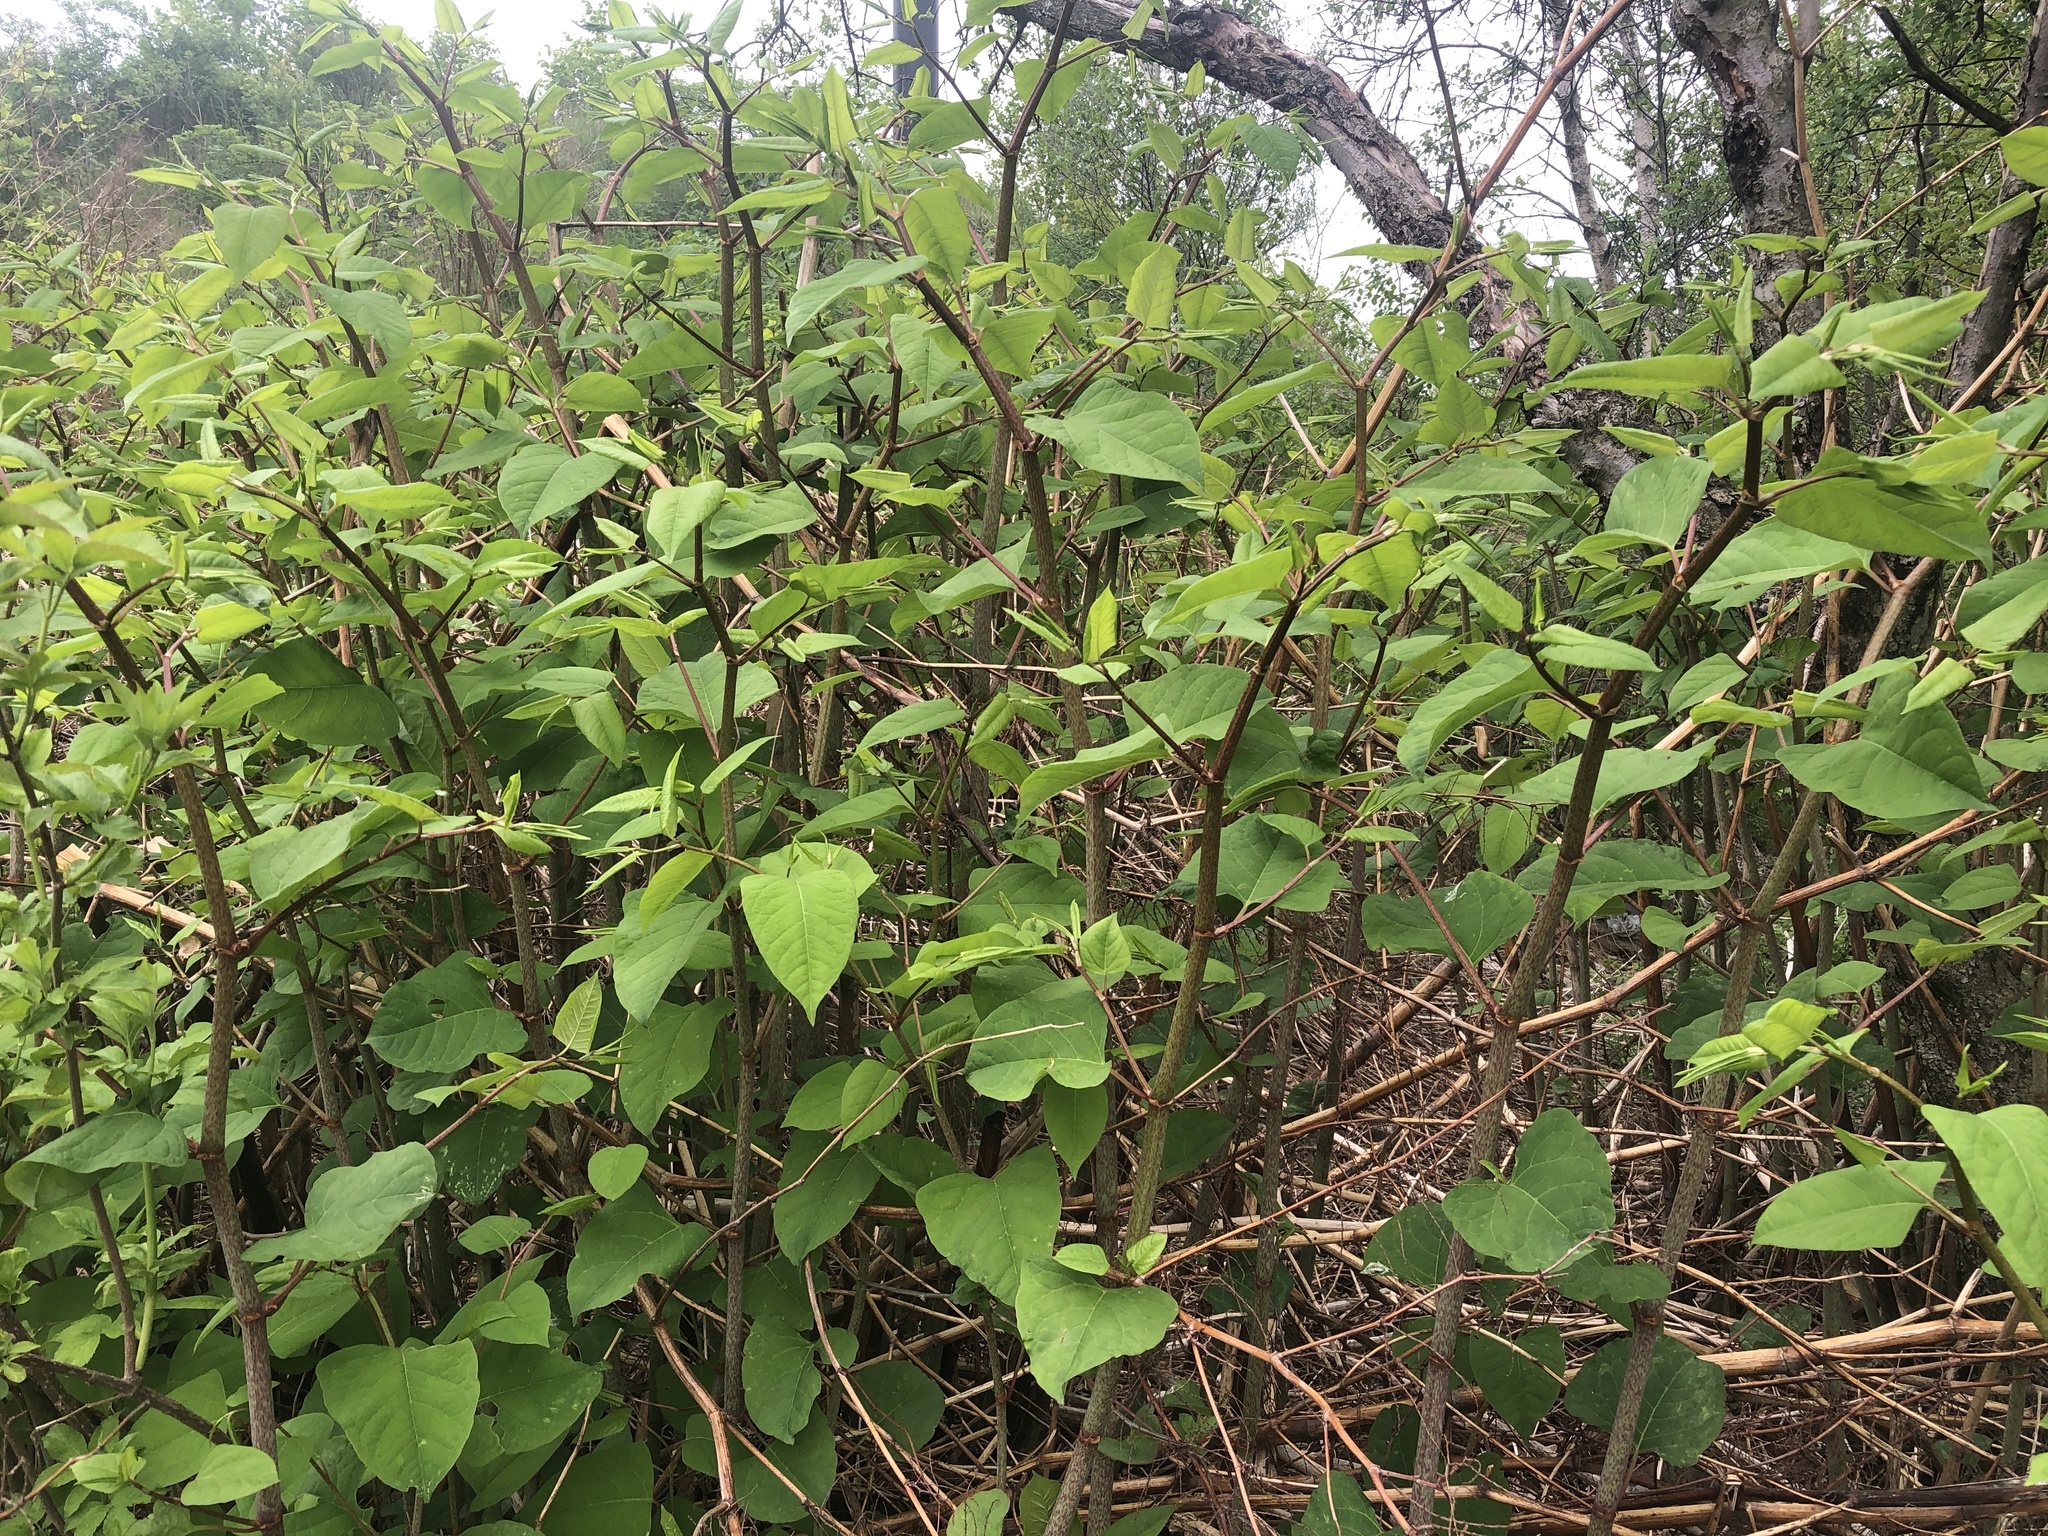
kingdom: Plantae
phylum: Tracheophyta
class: Magnoliopsida
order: Caryophyllales
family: Polygonaceae
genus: Reynoutria
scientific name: Reynoutria japonica
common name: Japanese knotweed
